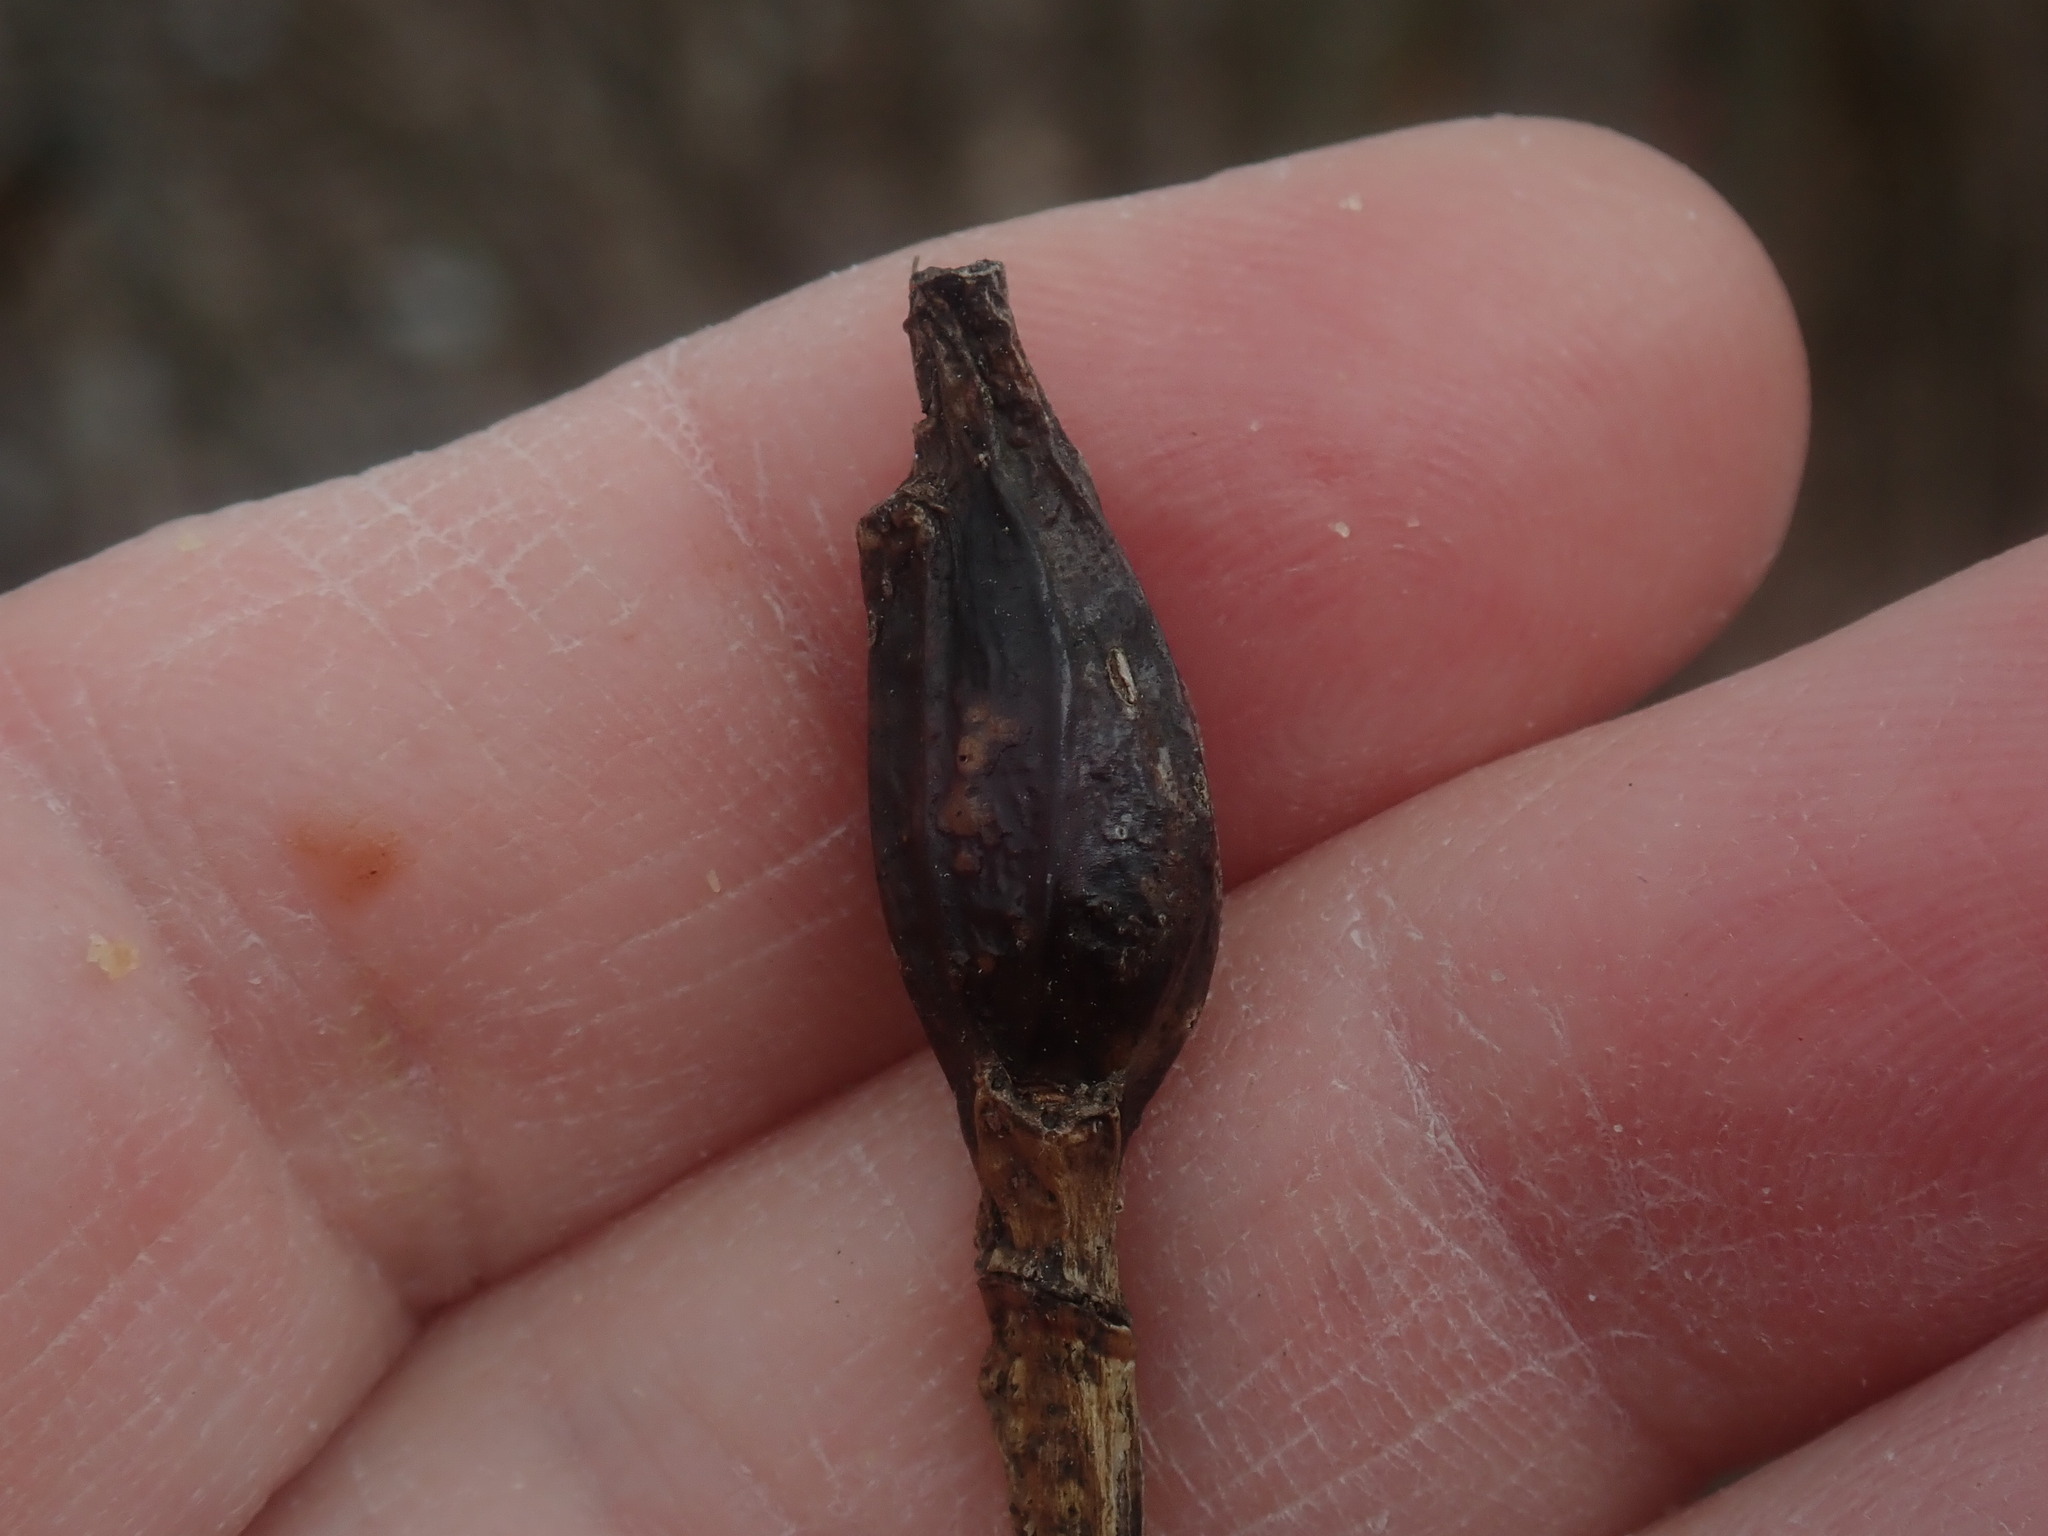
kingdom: Animalia
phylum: Arthropoda
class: Insecta
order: Diptera
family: Cecidomyiidae
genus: Thecodiplosis
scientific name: Thecodiplosis pinirigidae
